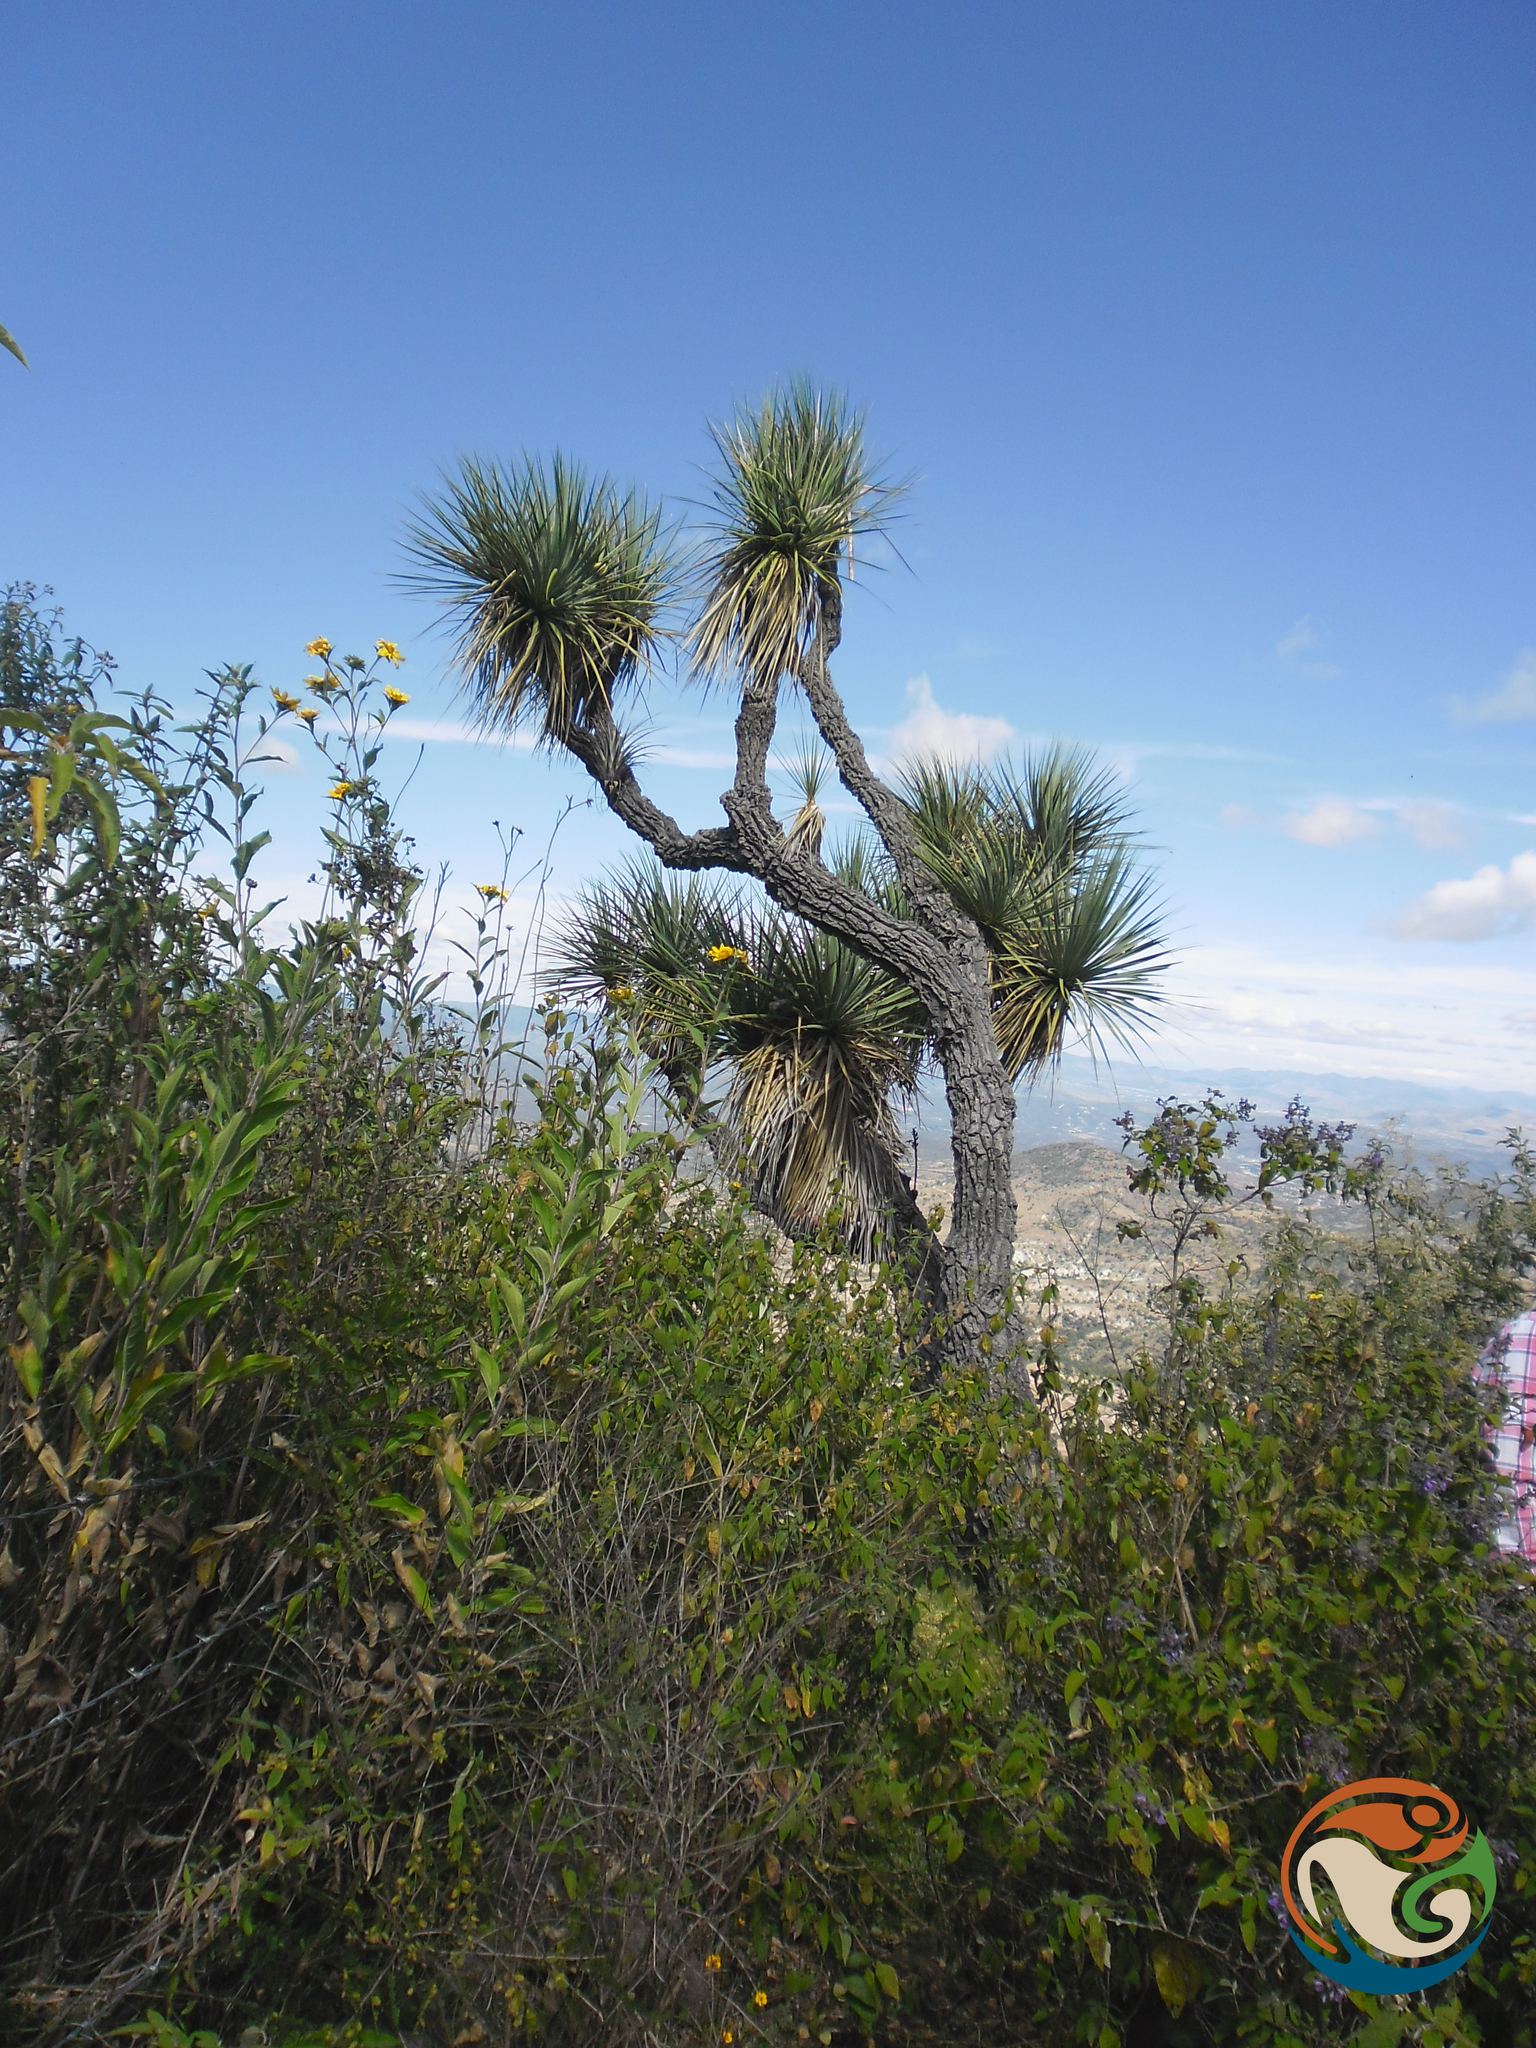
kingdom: Plantae
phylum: Tracheophyta
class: Liliopsida
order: Asparagales
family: Asparagaceae
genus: Yucca
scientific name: Yucca periculosa
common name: Izote yucca
